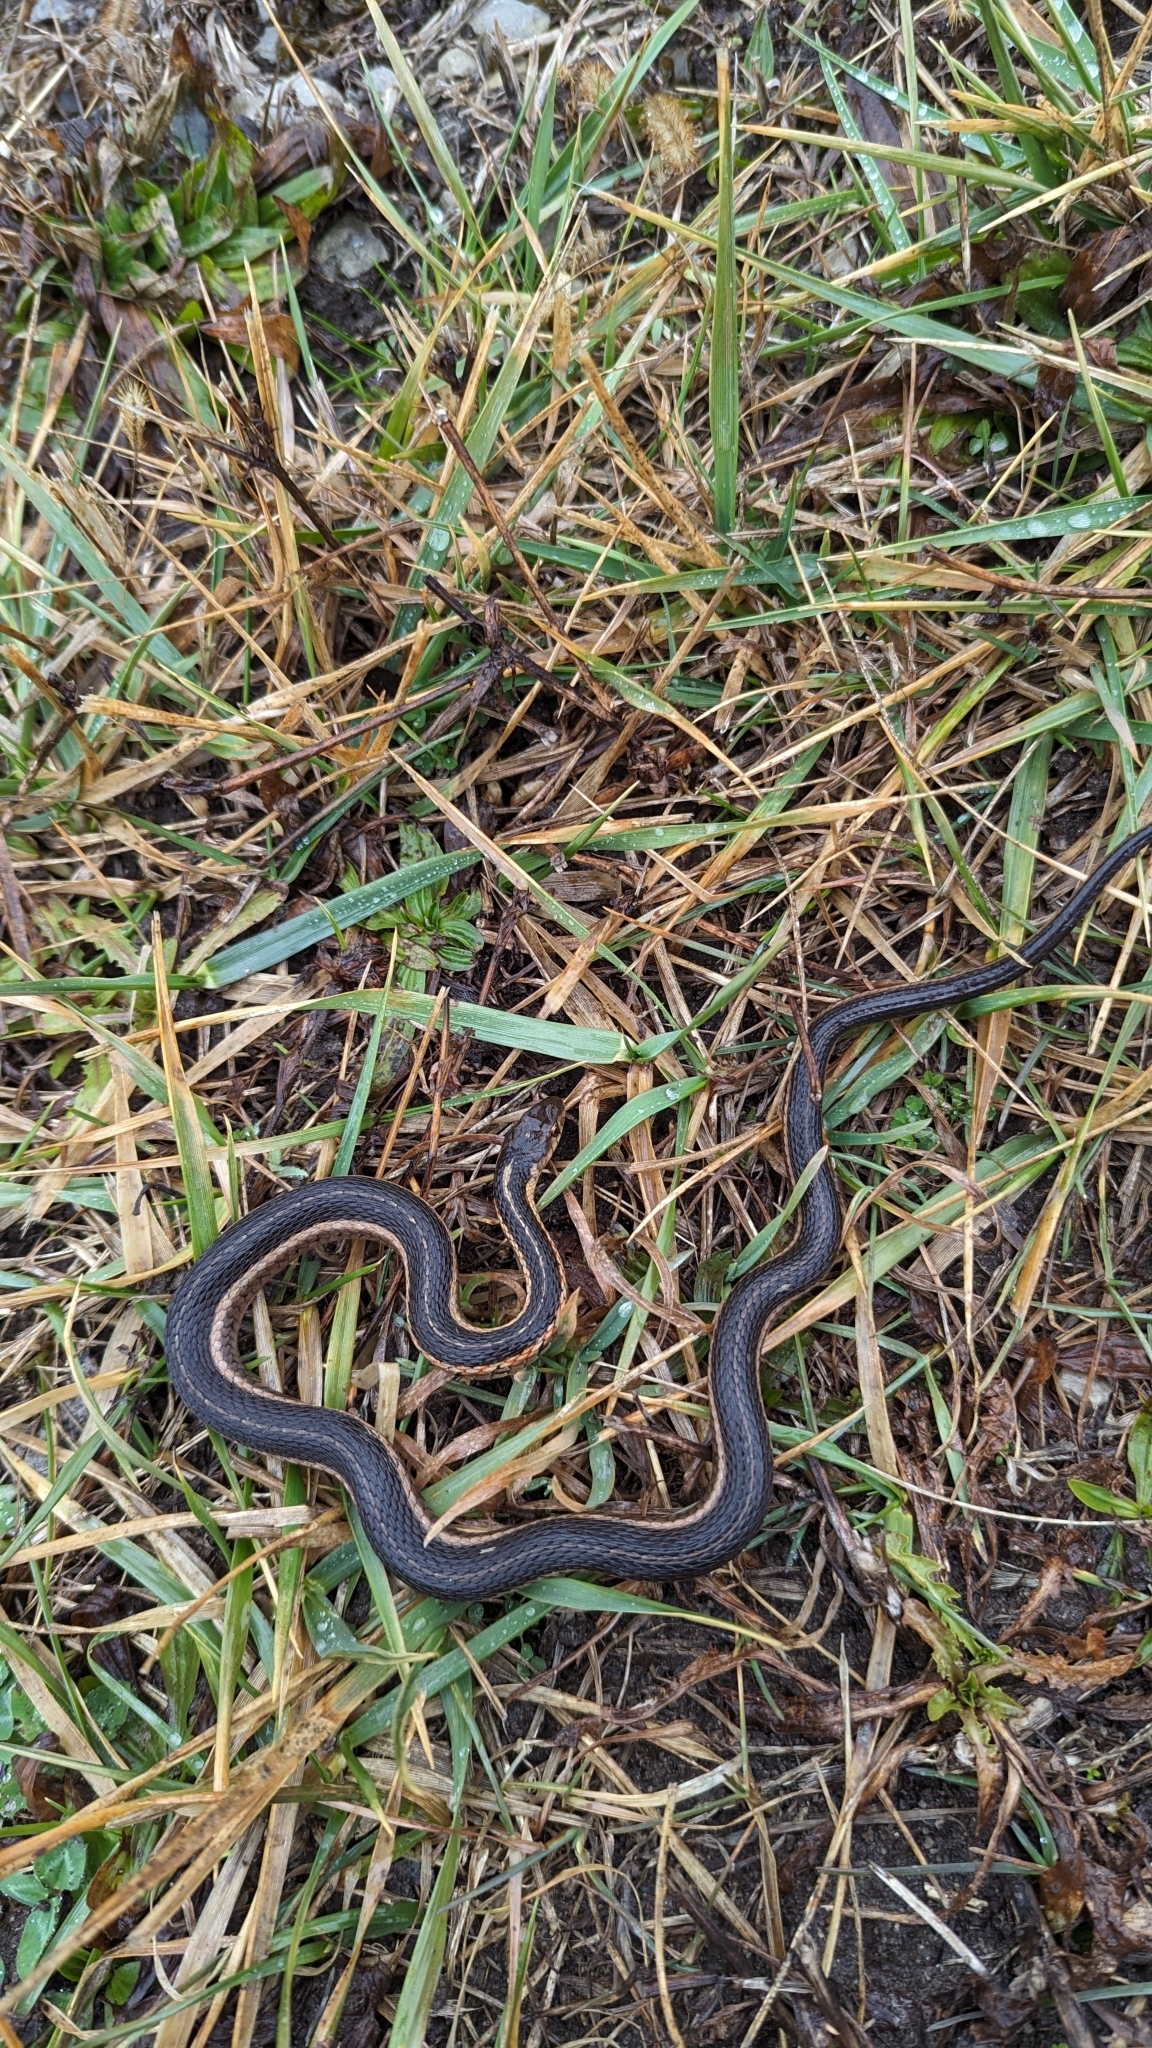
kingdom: Animalia
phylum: Chordata
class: Squamata
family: Colubridae
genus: Thamnophis
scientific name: Thamnophis sirtalis
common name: Common garter snake
